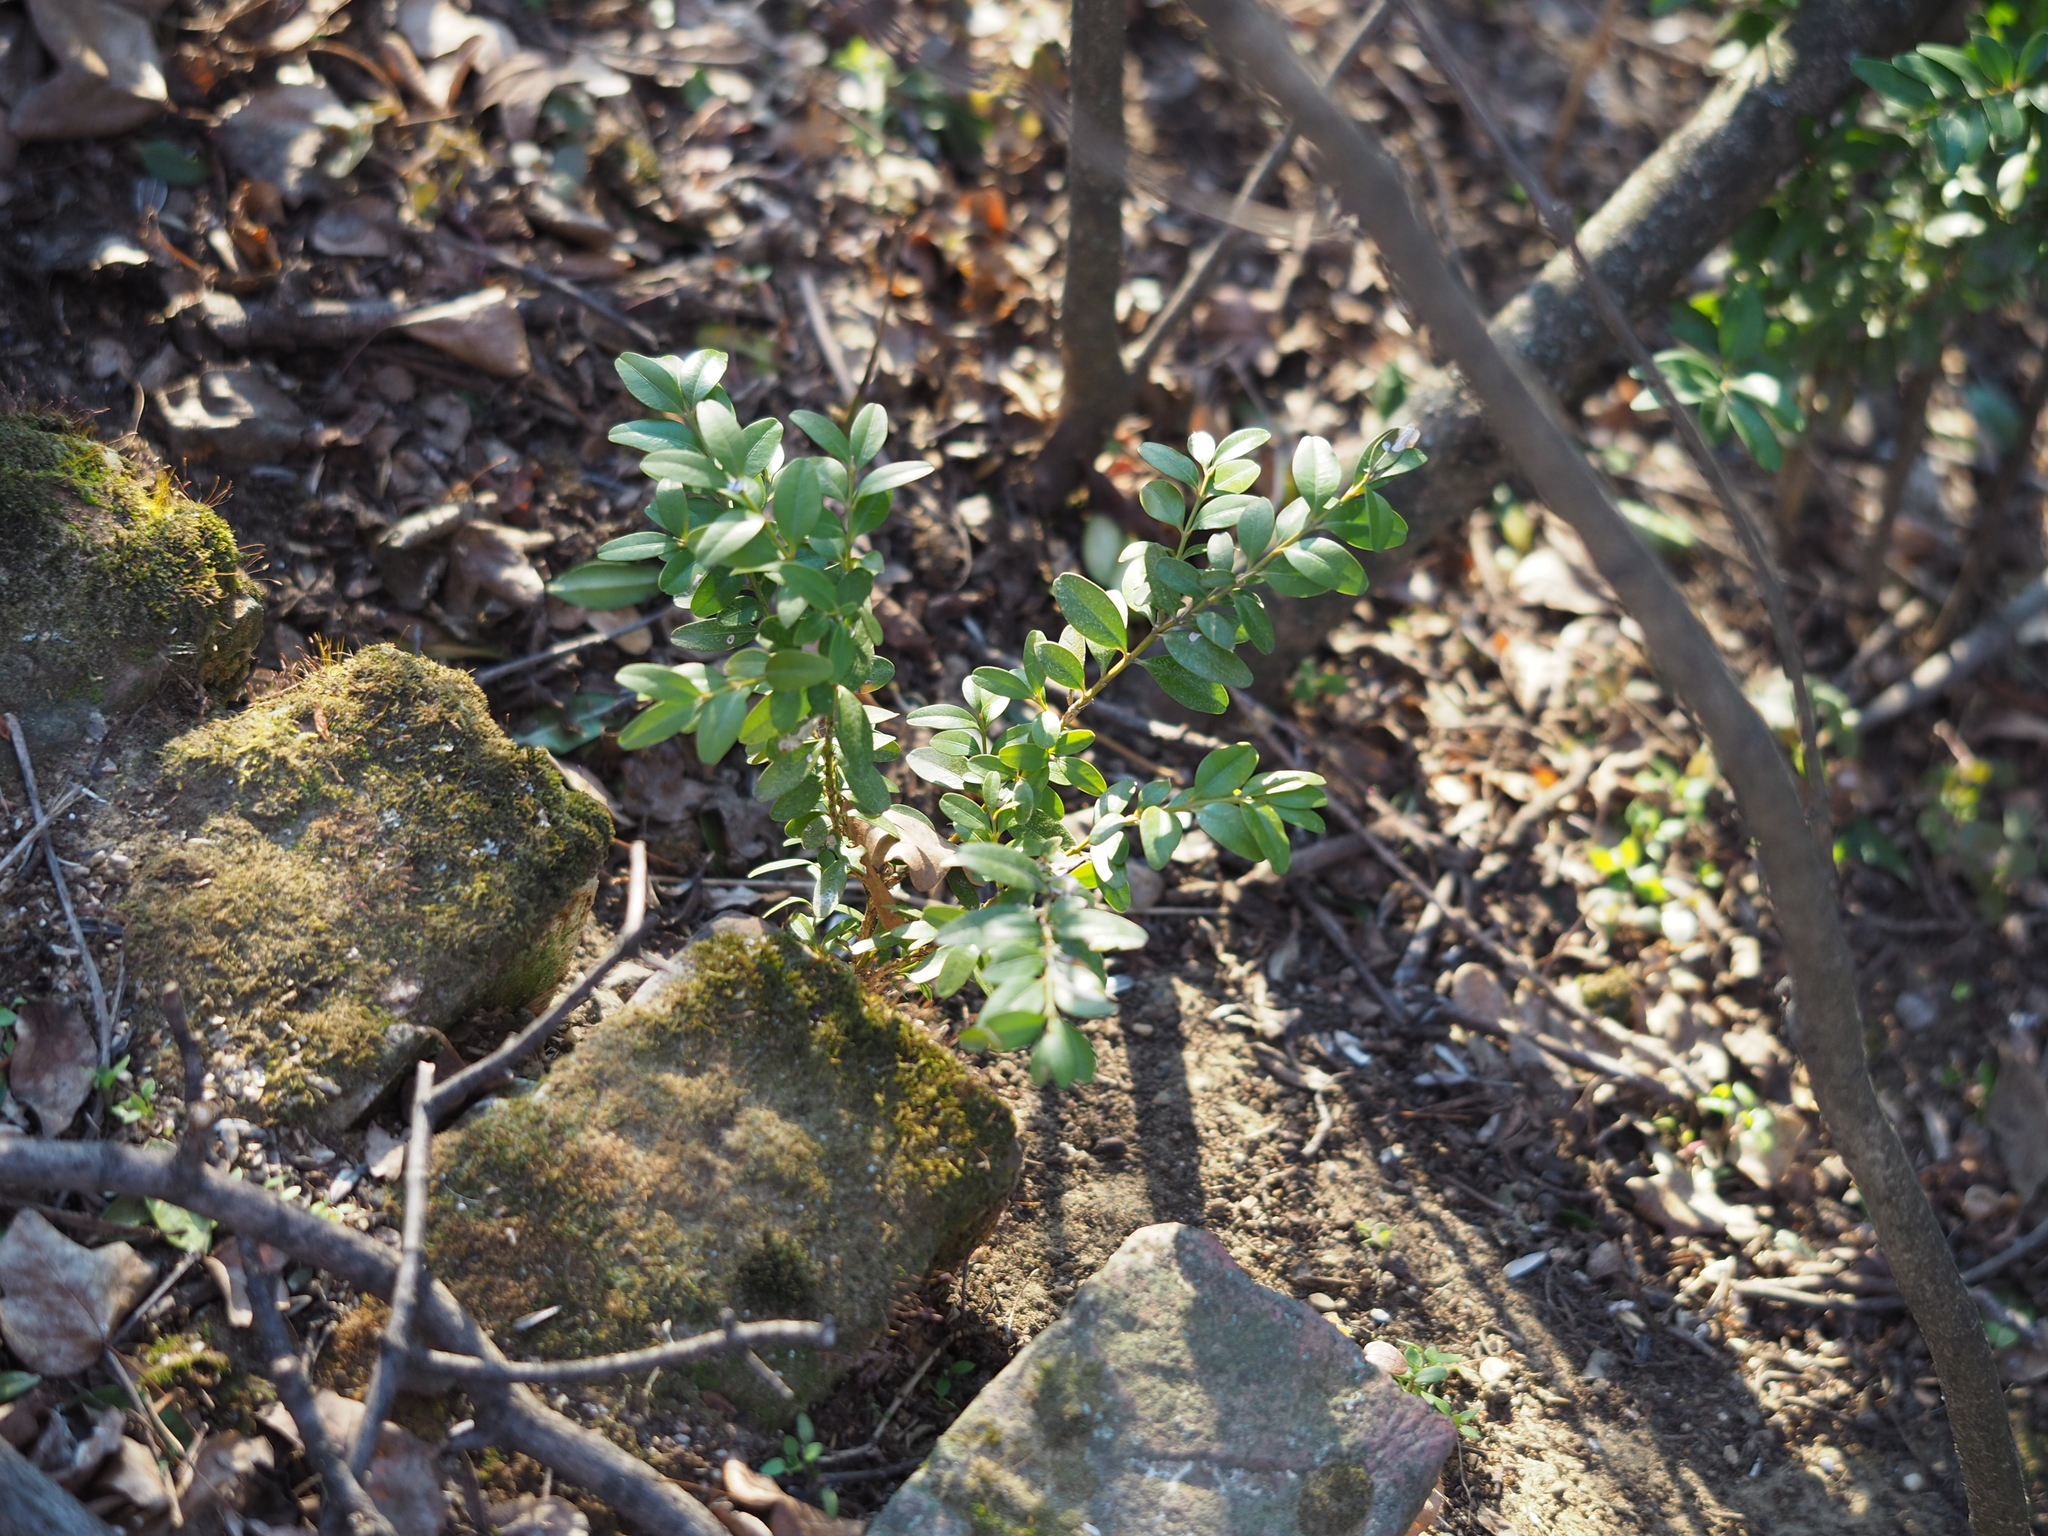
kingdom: Plantae
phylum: Tracheophyta
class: Magnoliopsida
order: Buxales
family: Buxaceae
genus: Buxus
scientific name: Buxus sempervirens
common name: Box
